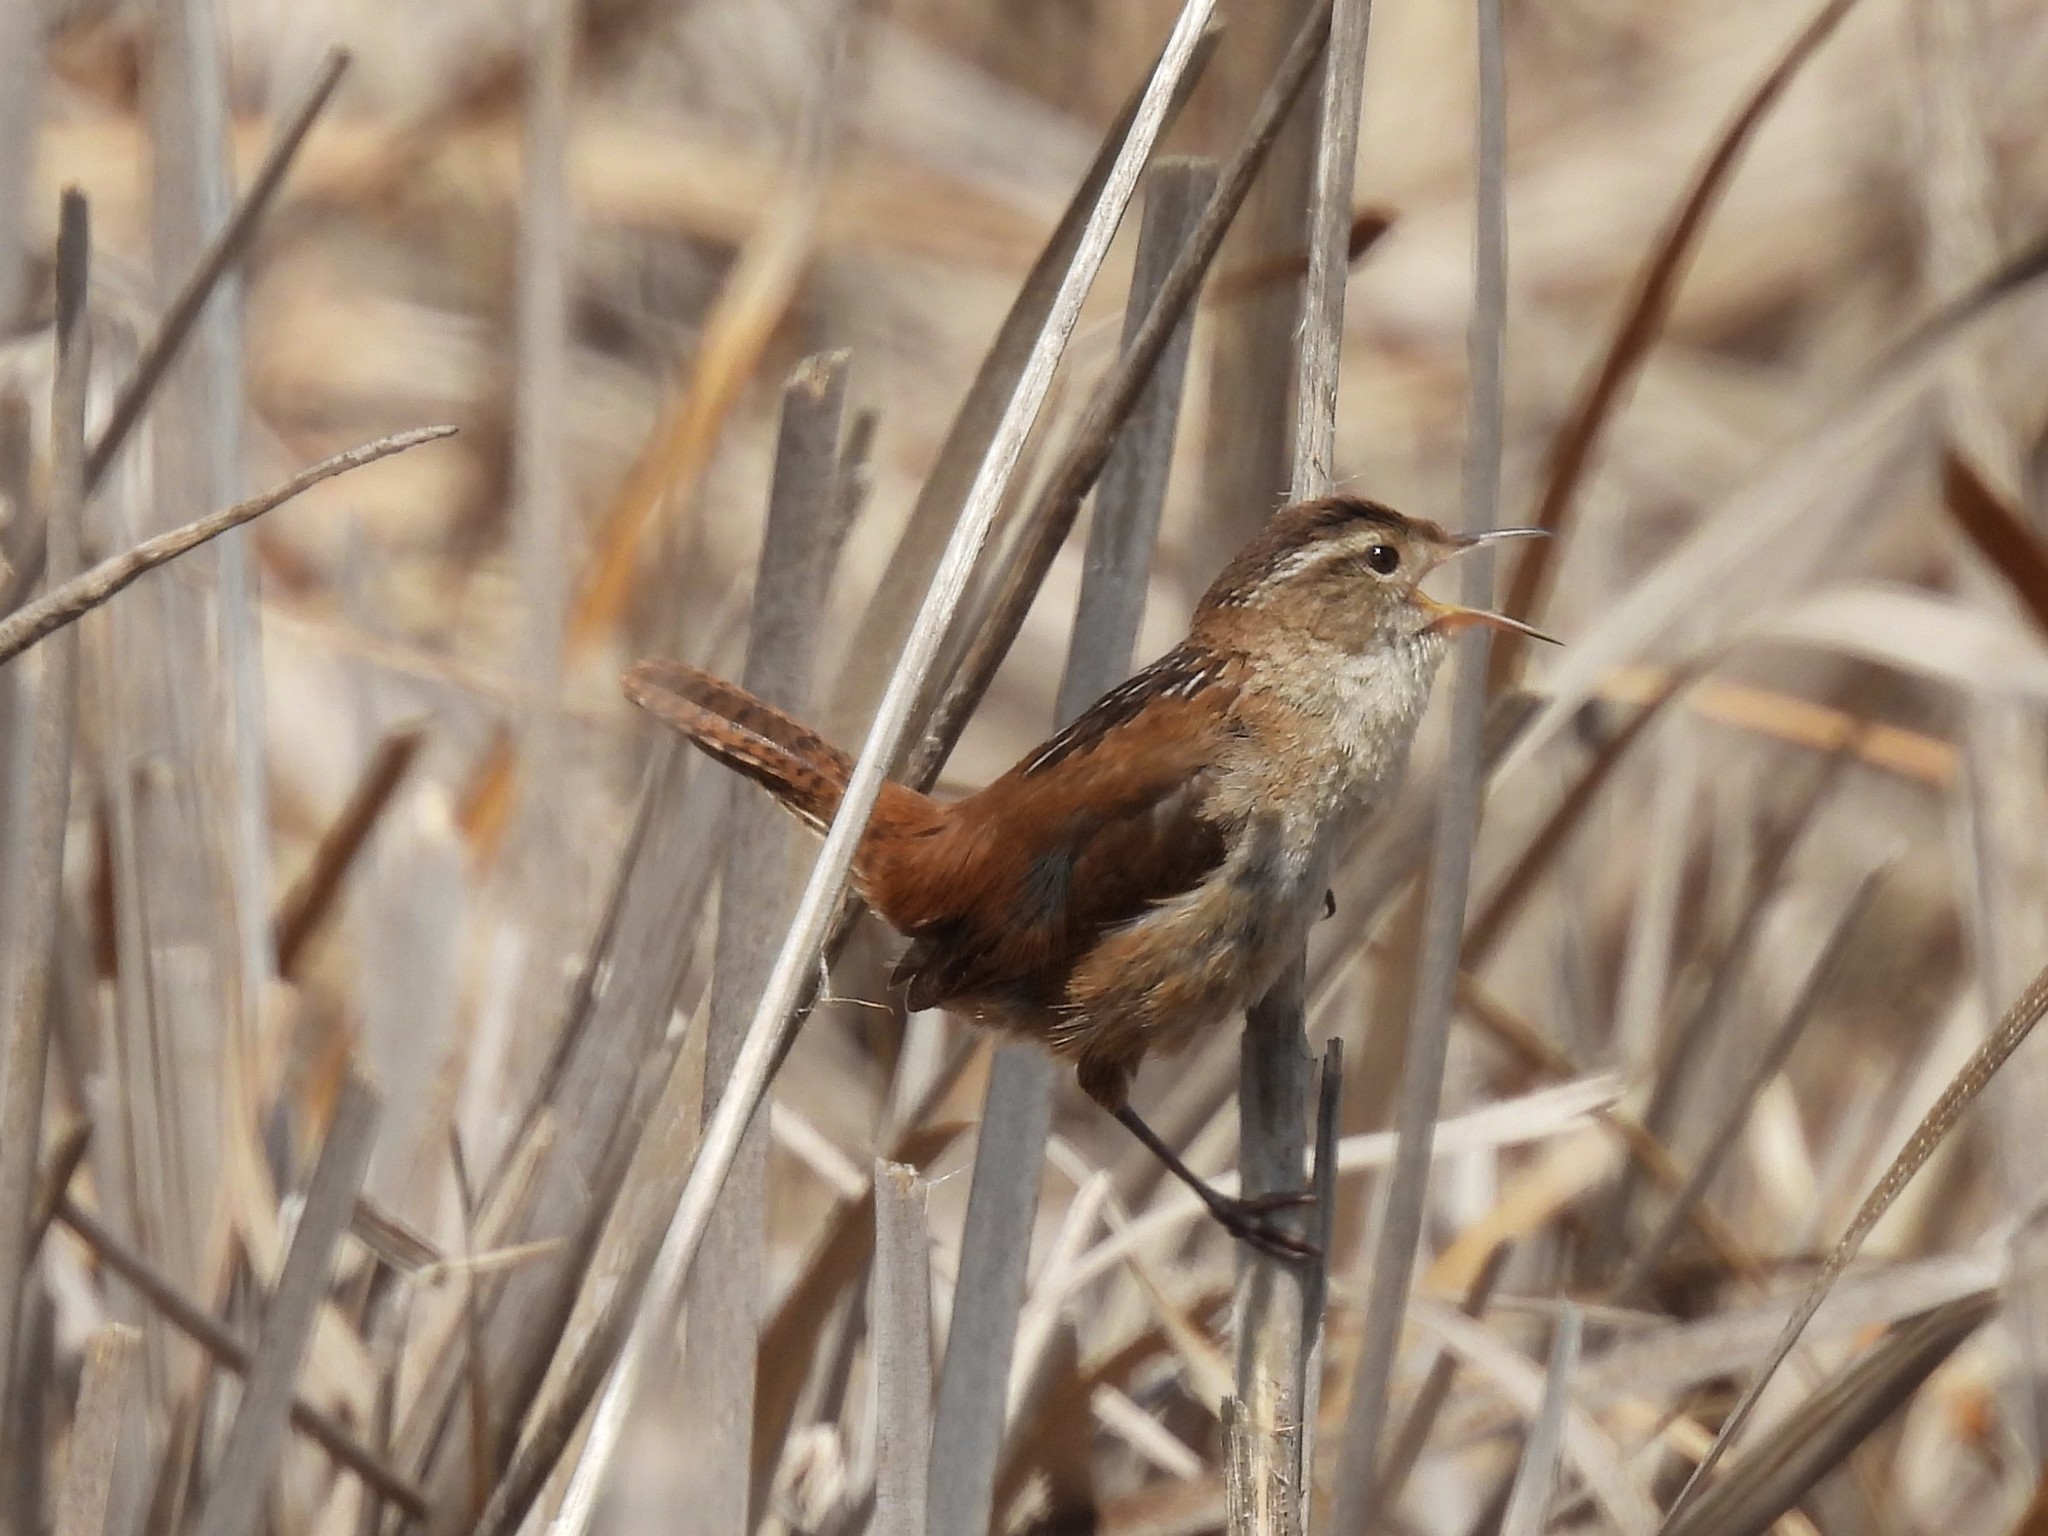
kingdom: Animalia
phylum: Chordata
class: Aves
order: Passeriformes
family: Troglodytidae
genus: Cistothorus
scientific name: Cistothorus palustris
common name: Marsh wren
